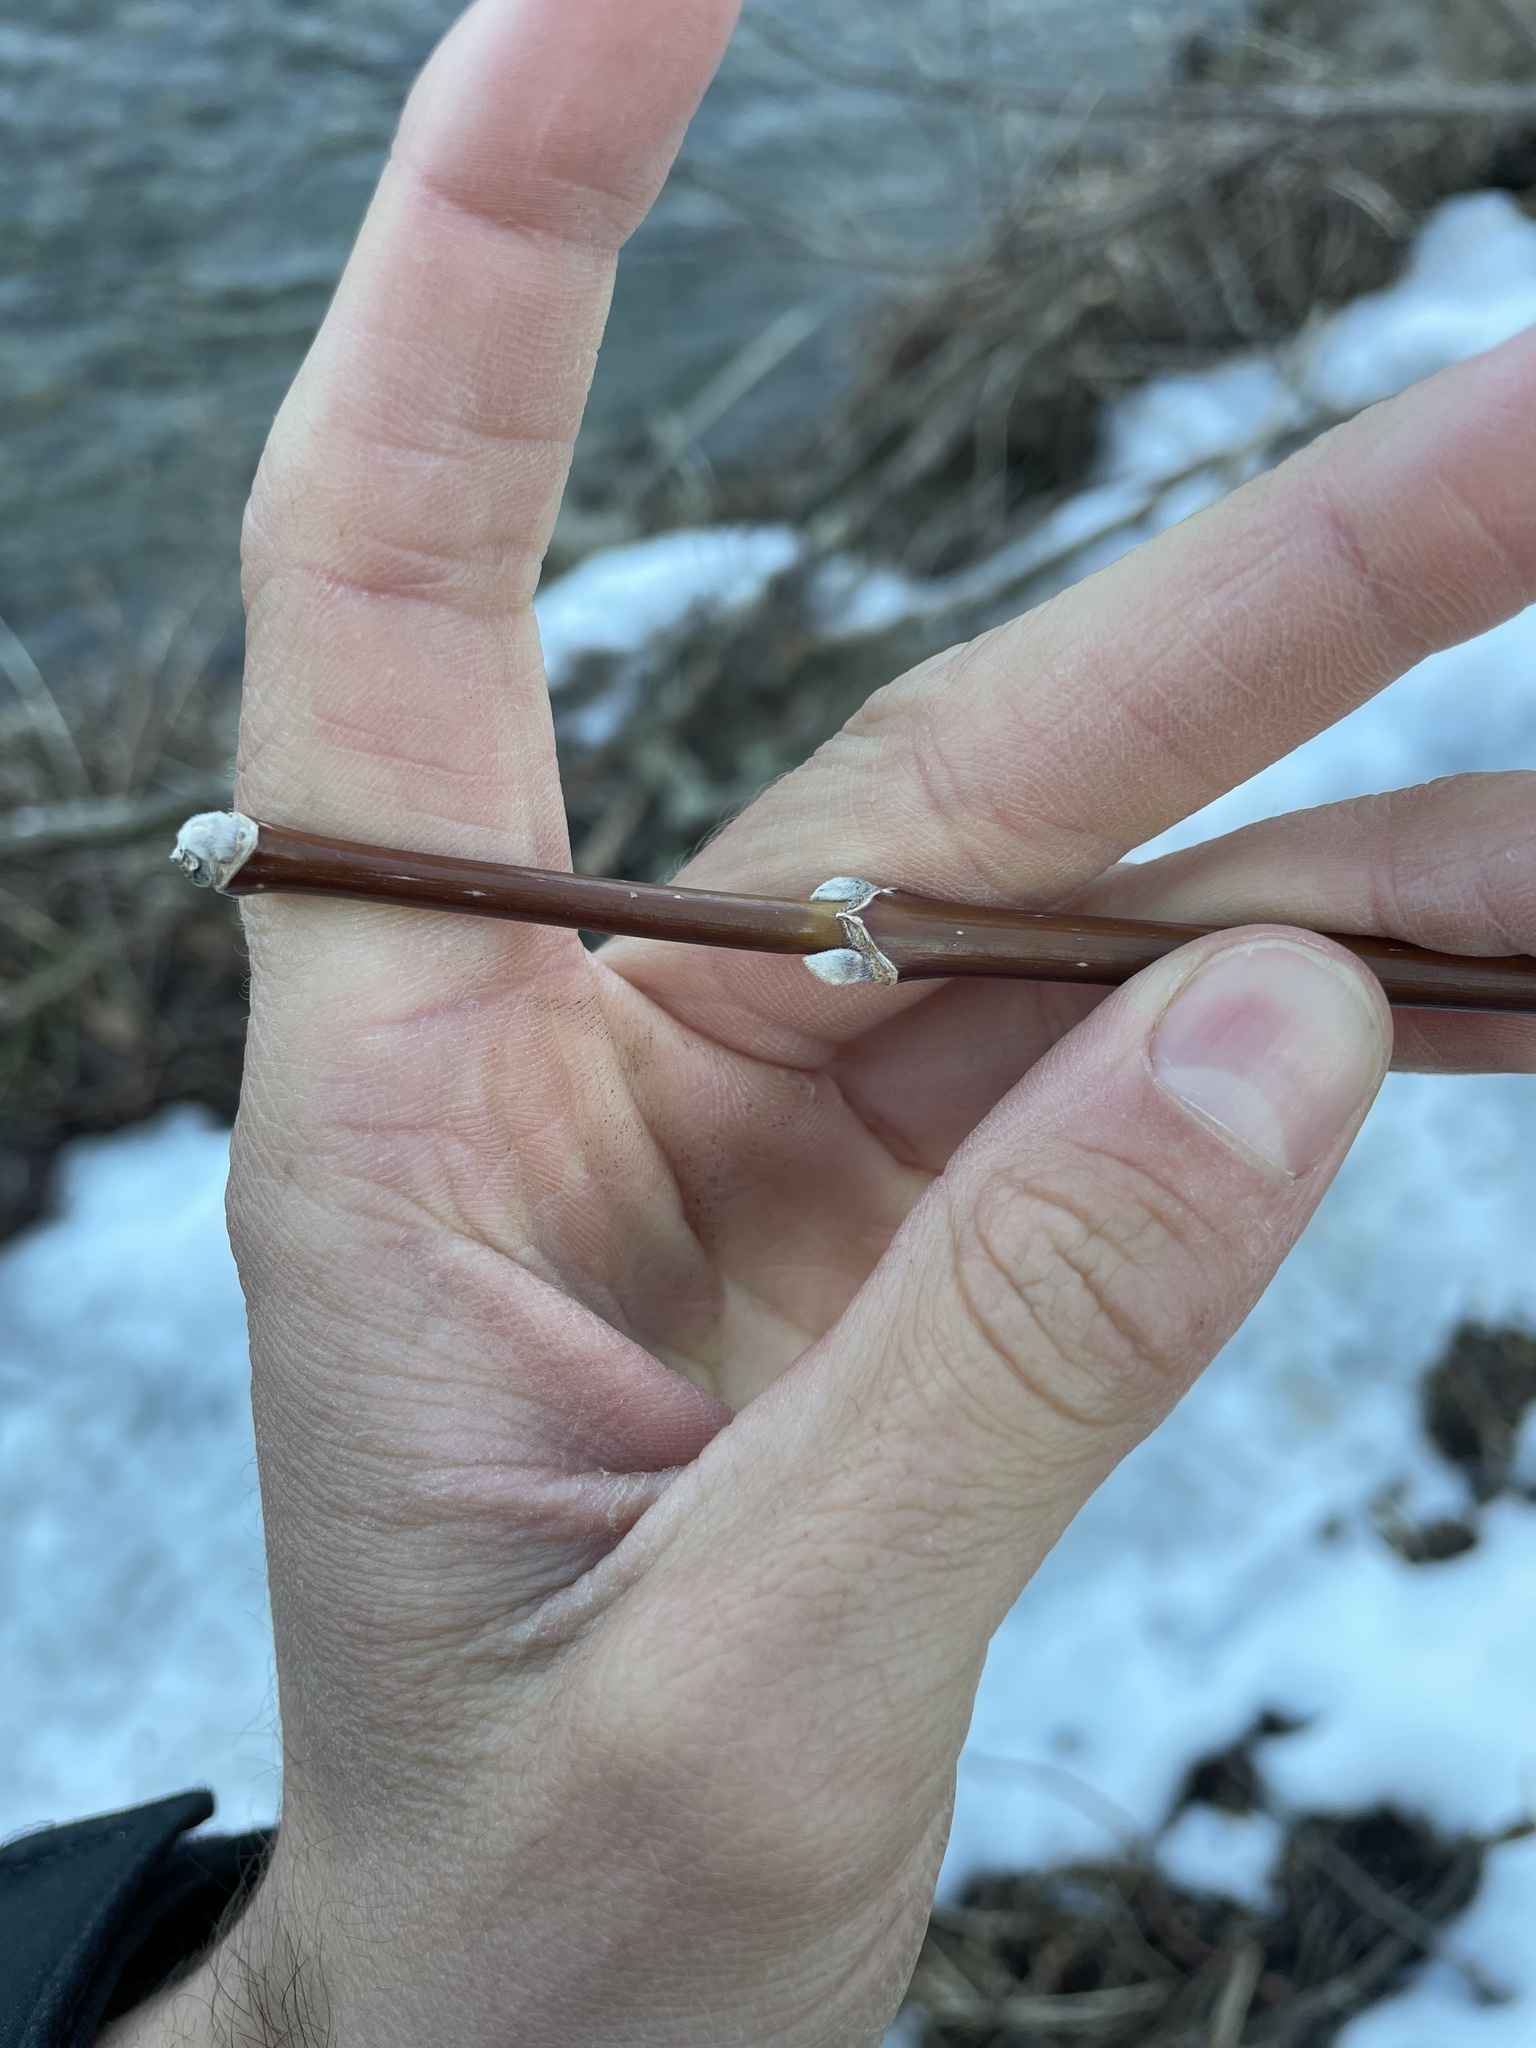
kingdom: Plantae
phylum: Tracheophyta
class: Magnoliopsida
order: Sapindales
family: Sapindaceae
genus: Acer
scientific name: Acer negundo
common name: Ashleaf maple
